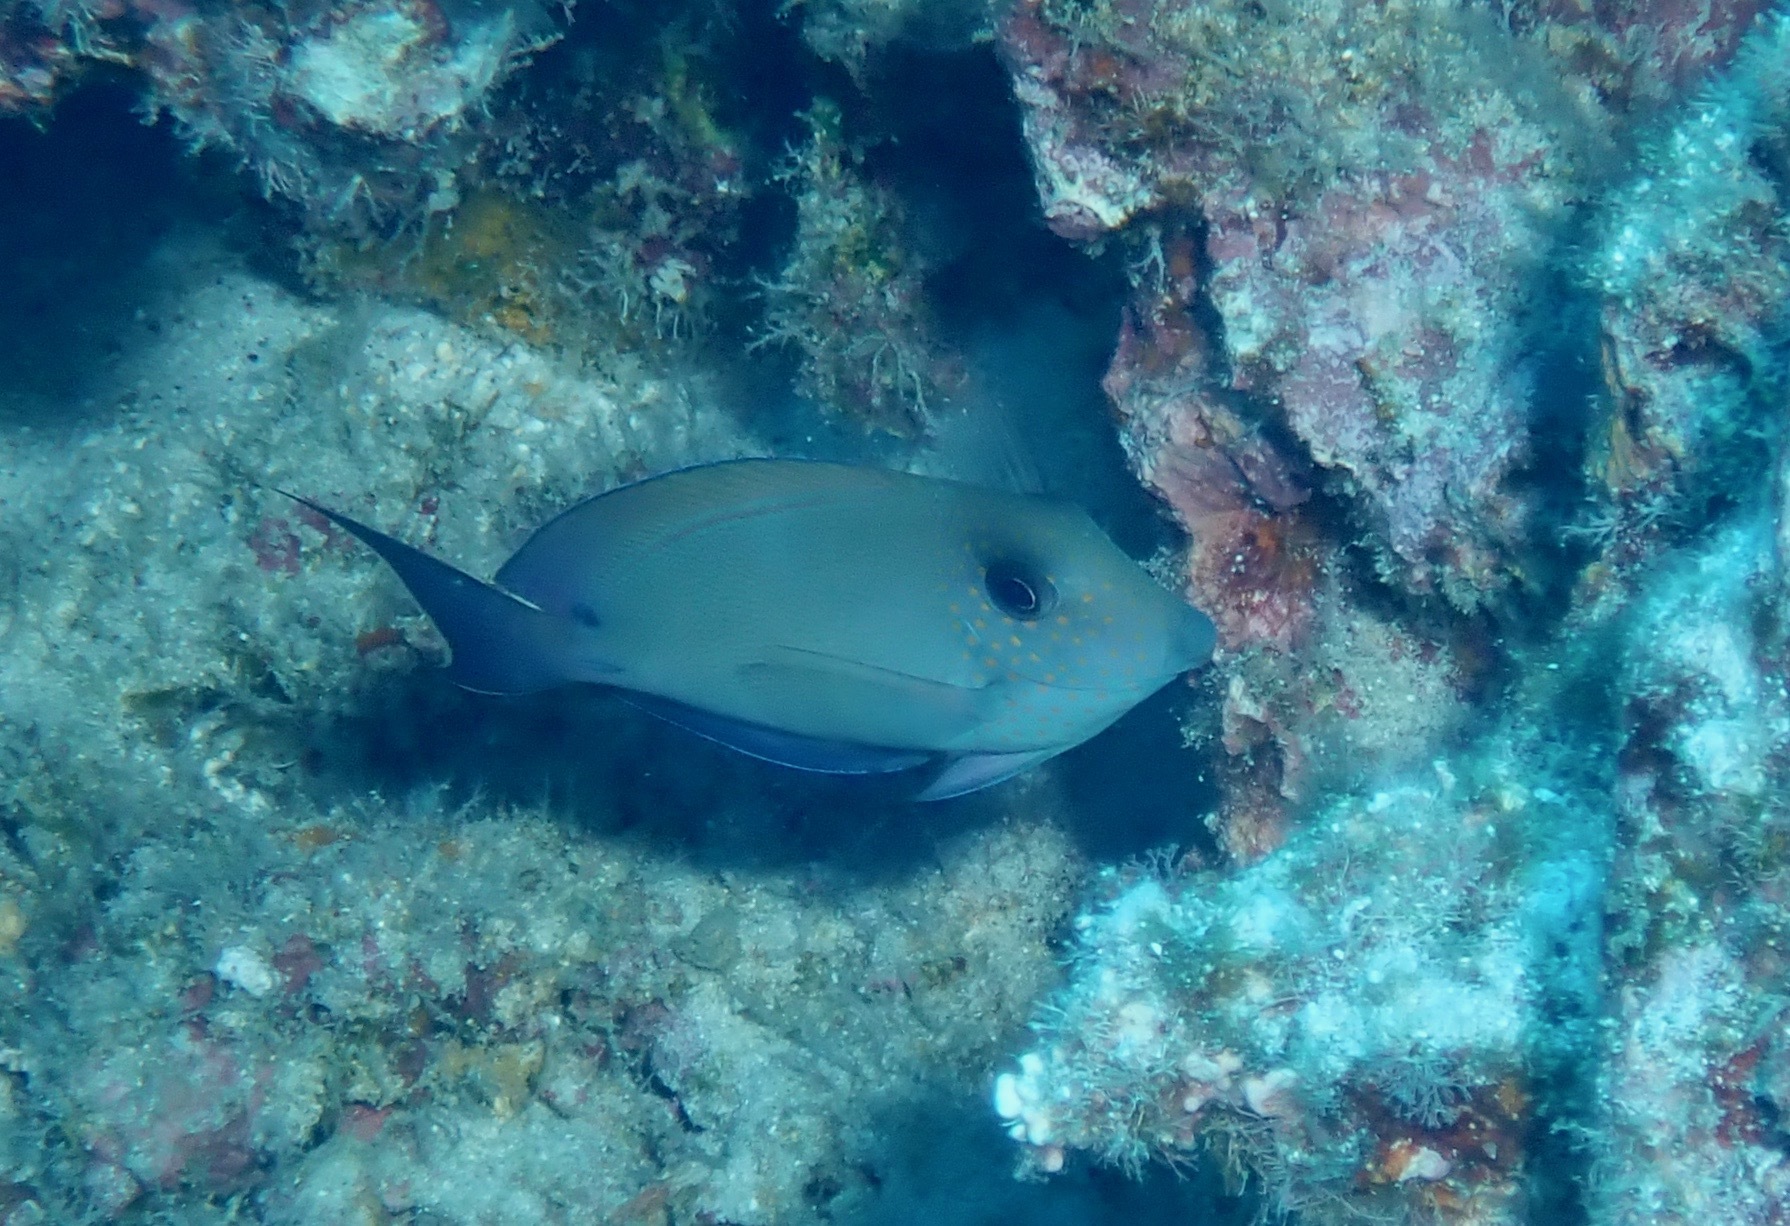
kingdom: Animalia
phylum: Chordata
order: Perciformes
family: Acanthuridae
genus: Acanthurus
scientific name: Acanthurus nigrofuscus
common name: Blackspot surgeonfish
